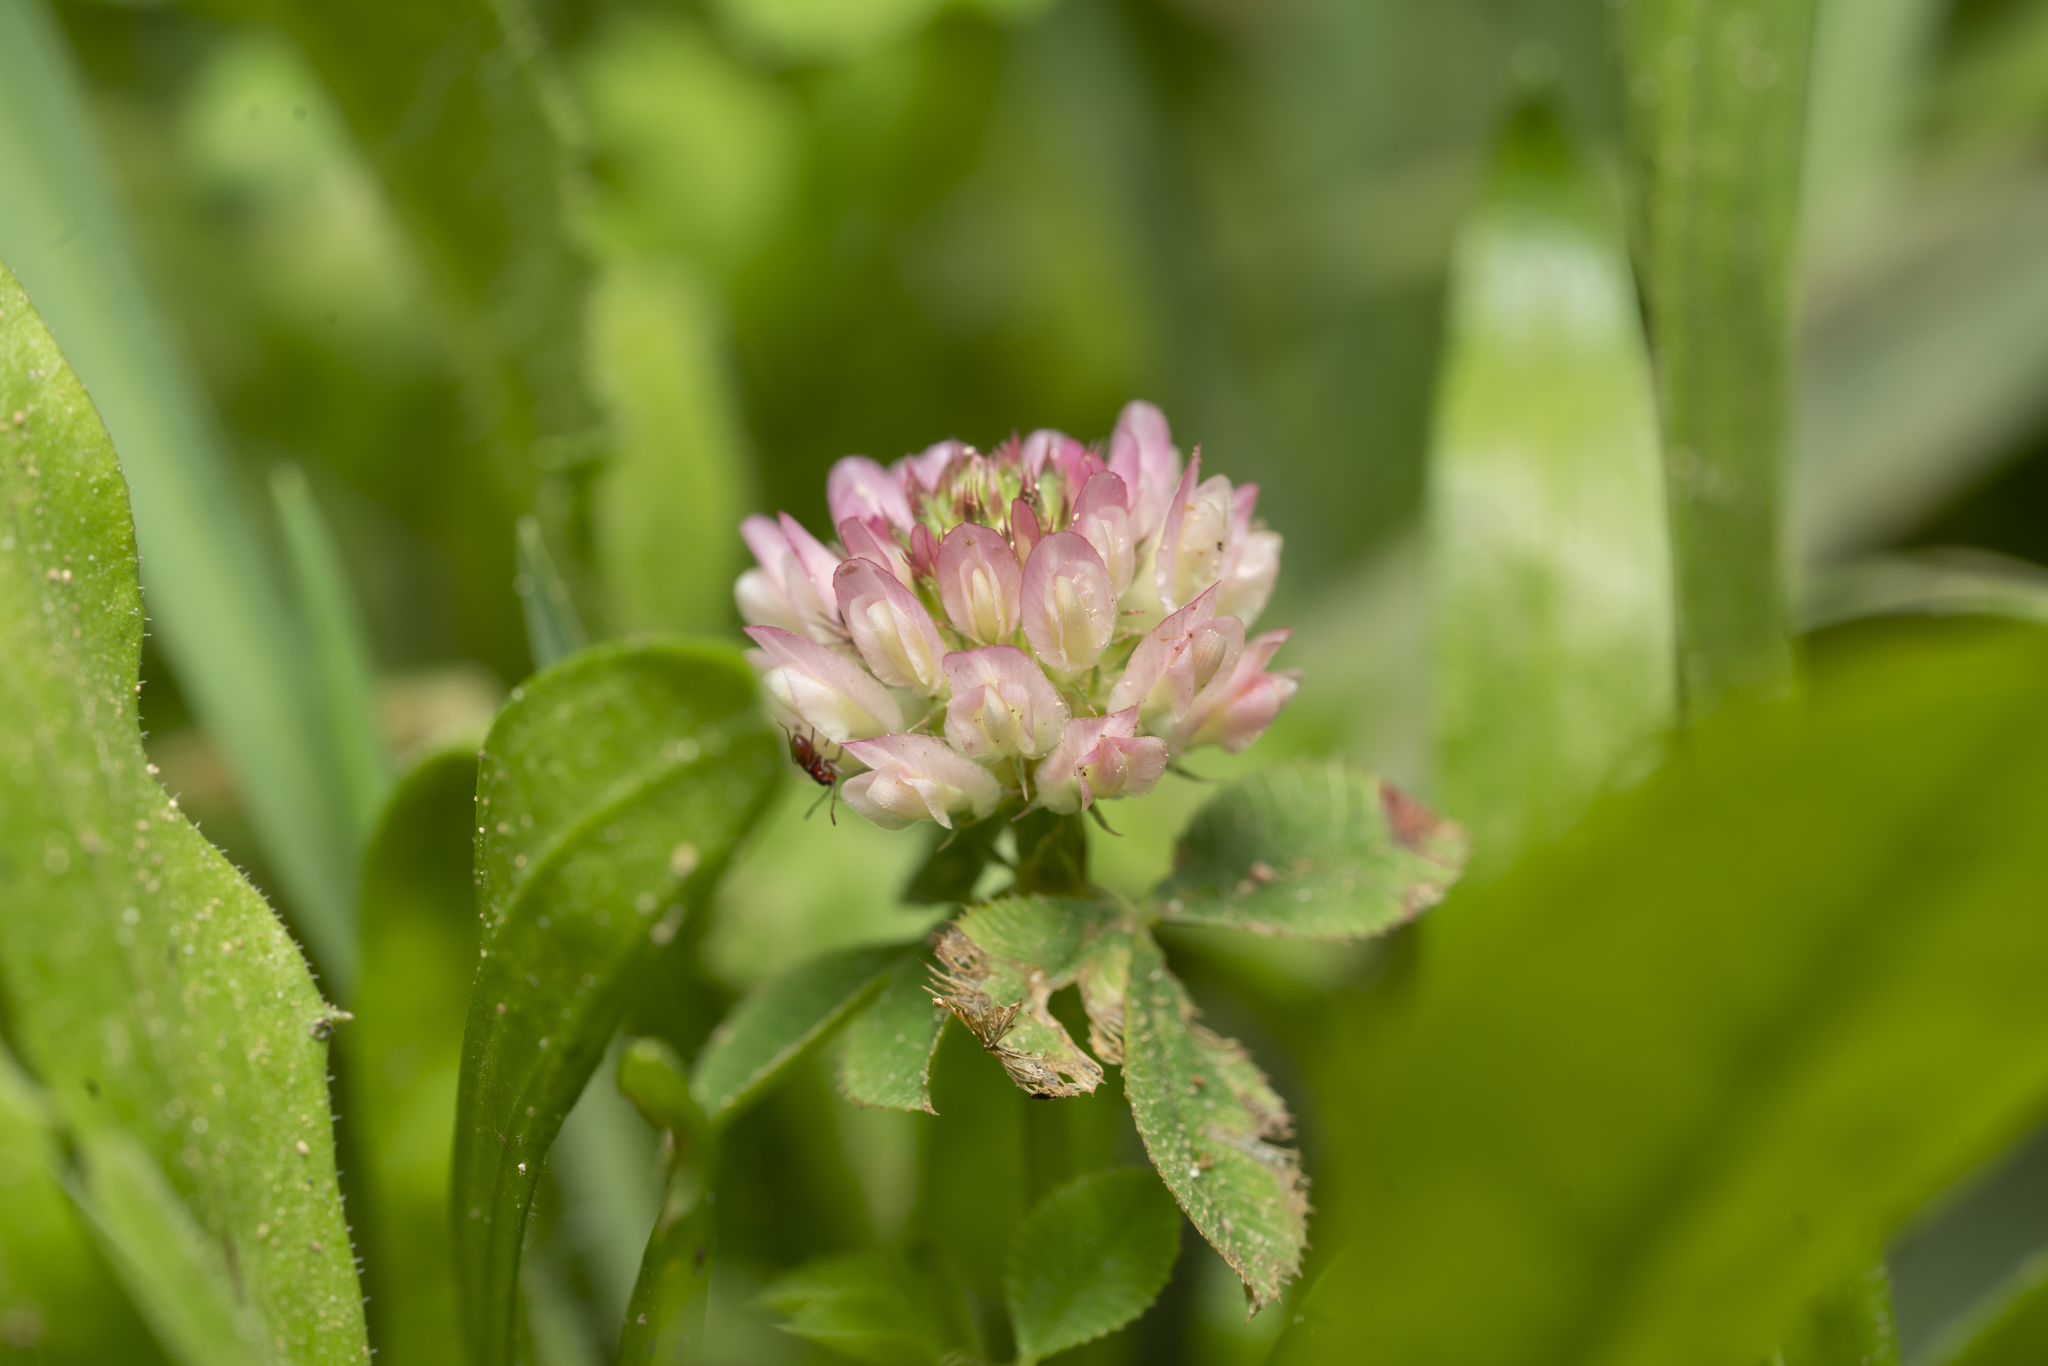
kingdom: Plantae
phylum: Tracheophyta
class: Magnoliopsida
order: Fabales
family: Fabaceae
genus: Trifolium
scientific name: Trifolium nigrescens
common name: Small white clover
